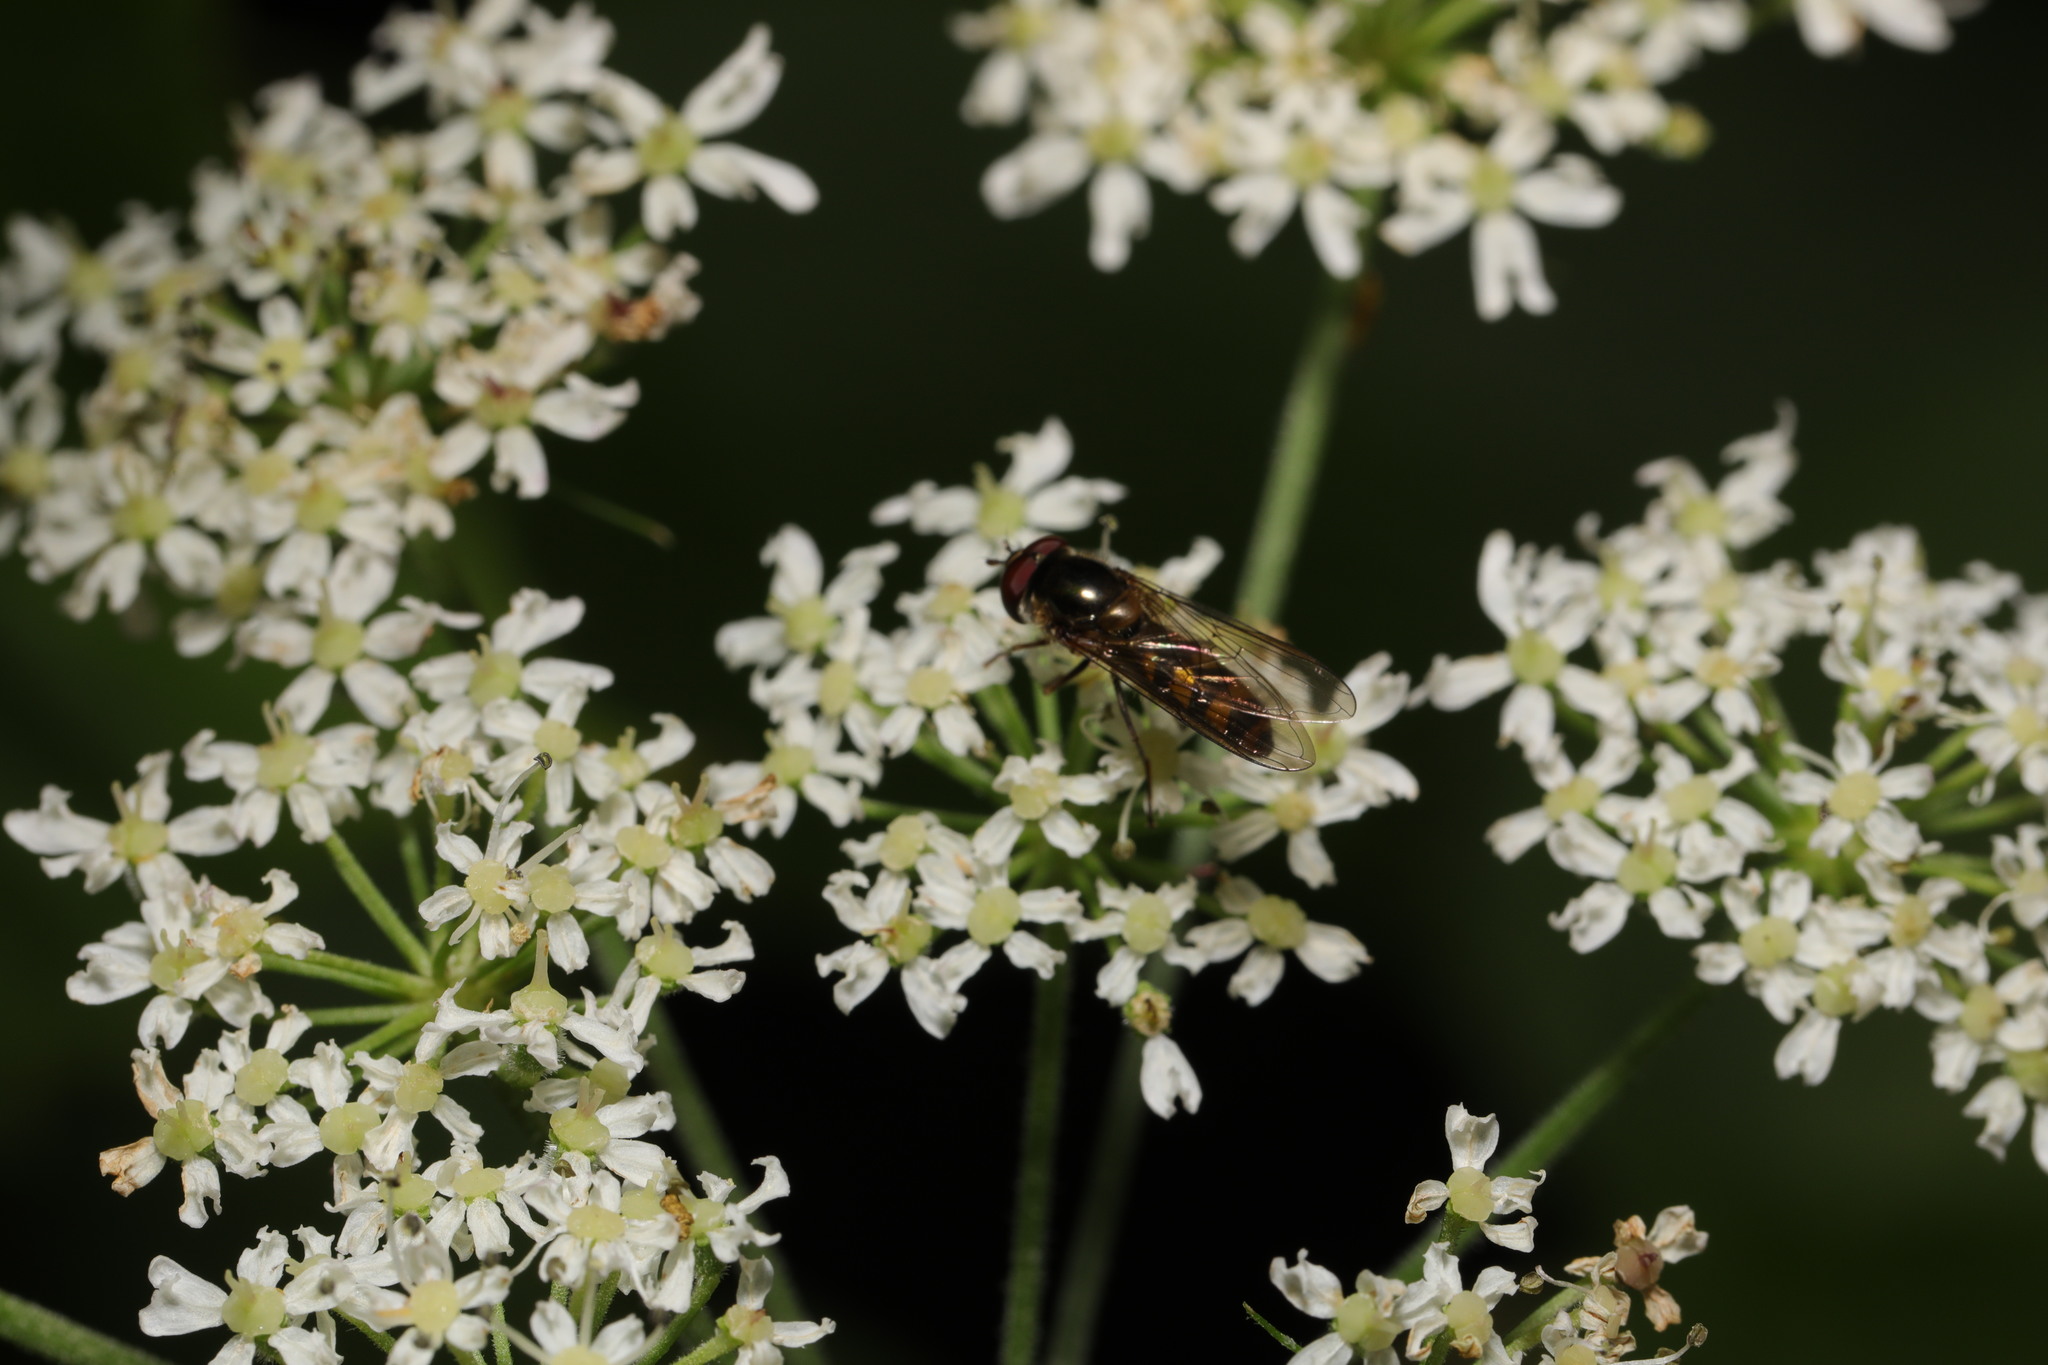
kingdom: Animalia
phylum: Arthropoda
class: Insecta
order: Diptera
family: Syrphidae
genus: Meliscaeva
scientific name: Meliscaeva auricollis
